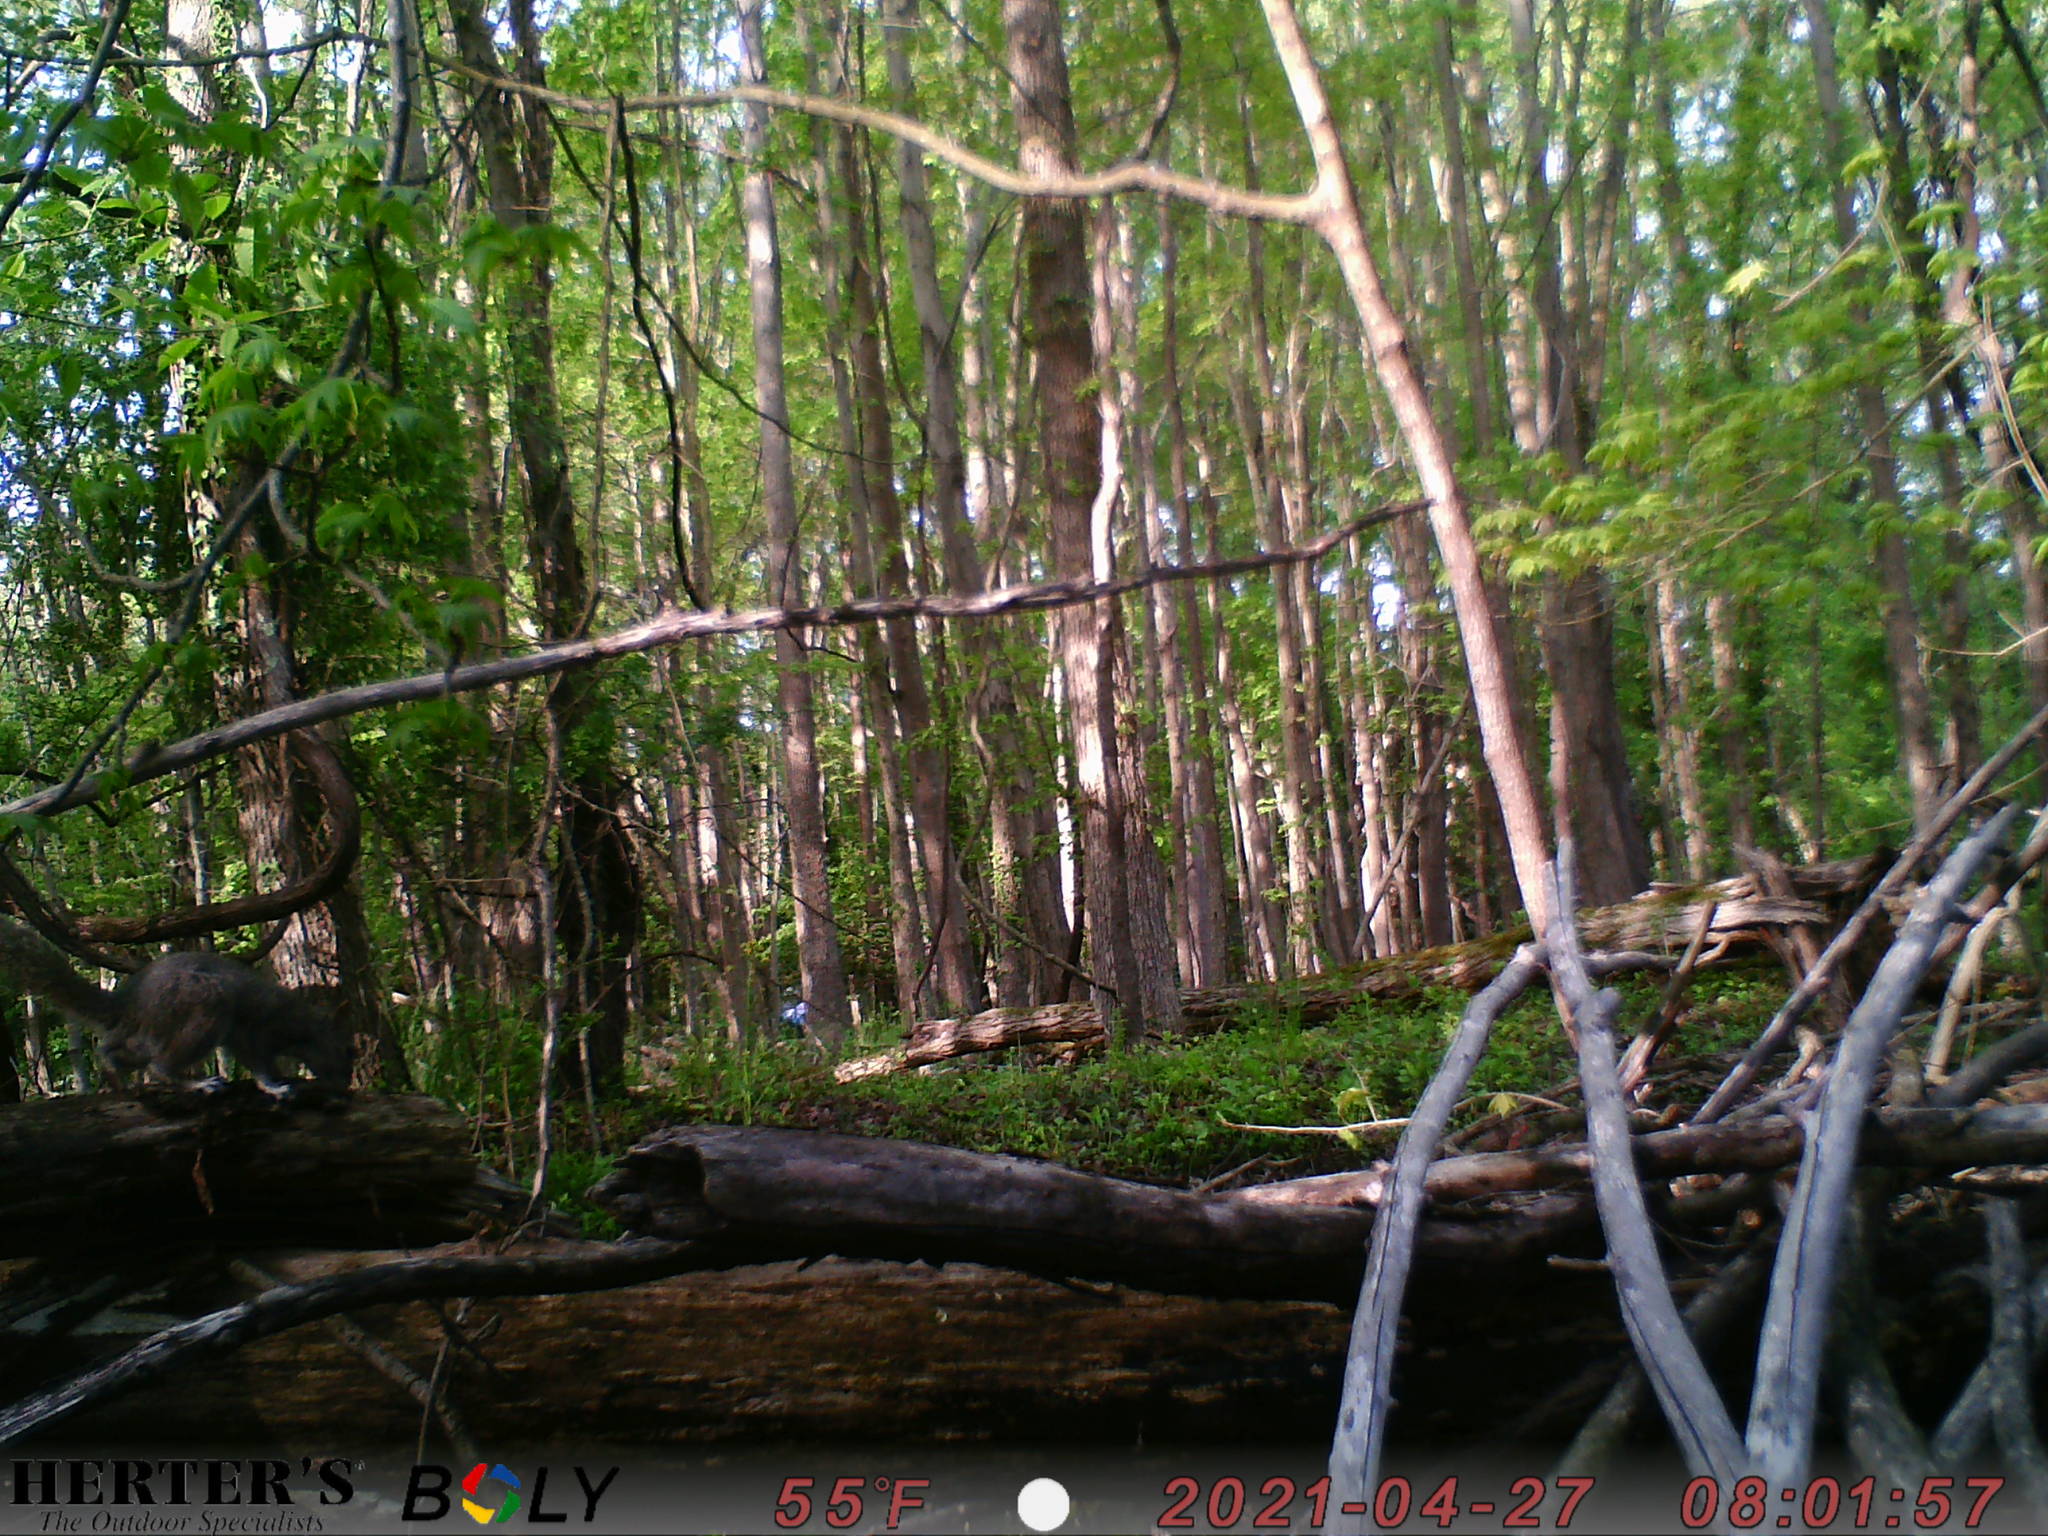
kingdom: Animalia
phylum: Chordata
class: Mammalia
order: Rodentia
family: Sciuridae
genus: Sciurus
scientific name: Sciurus carolinensis
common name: Eastern gray squirrel
